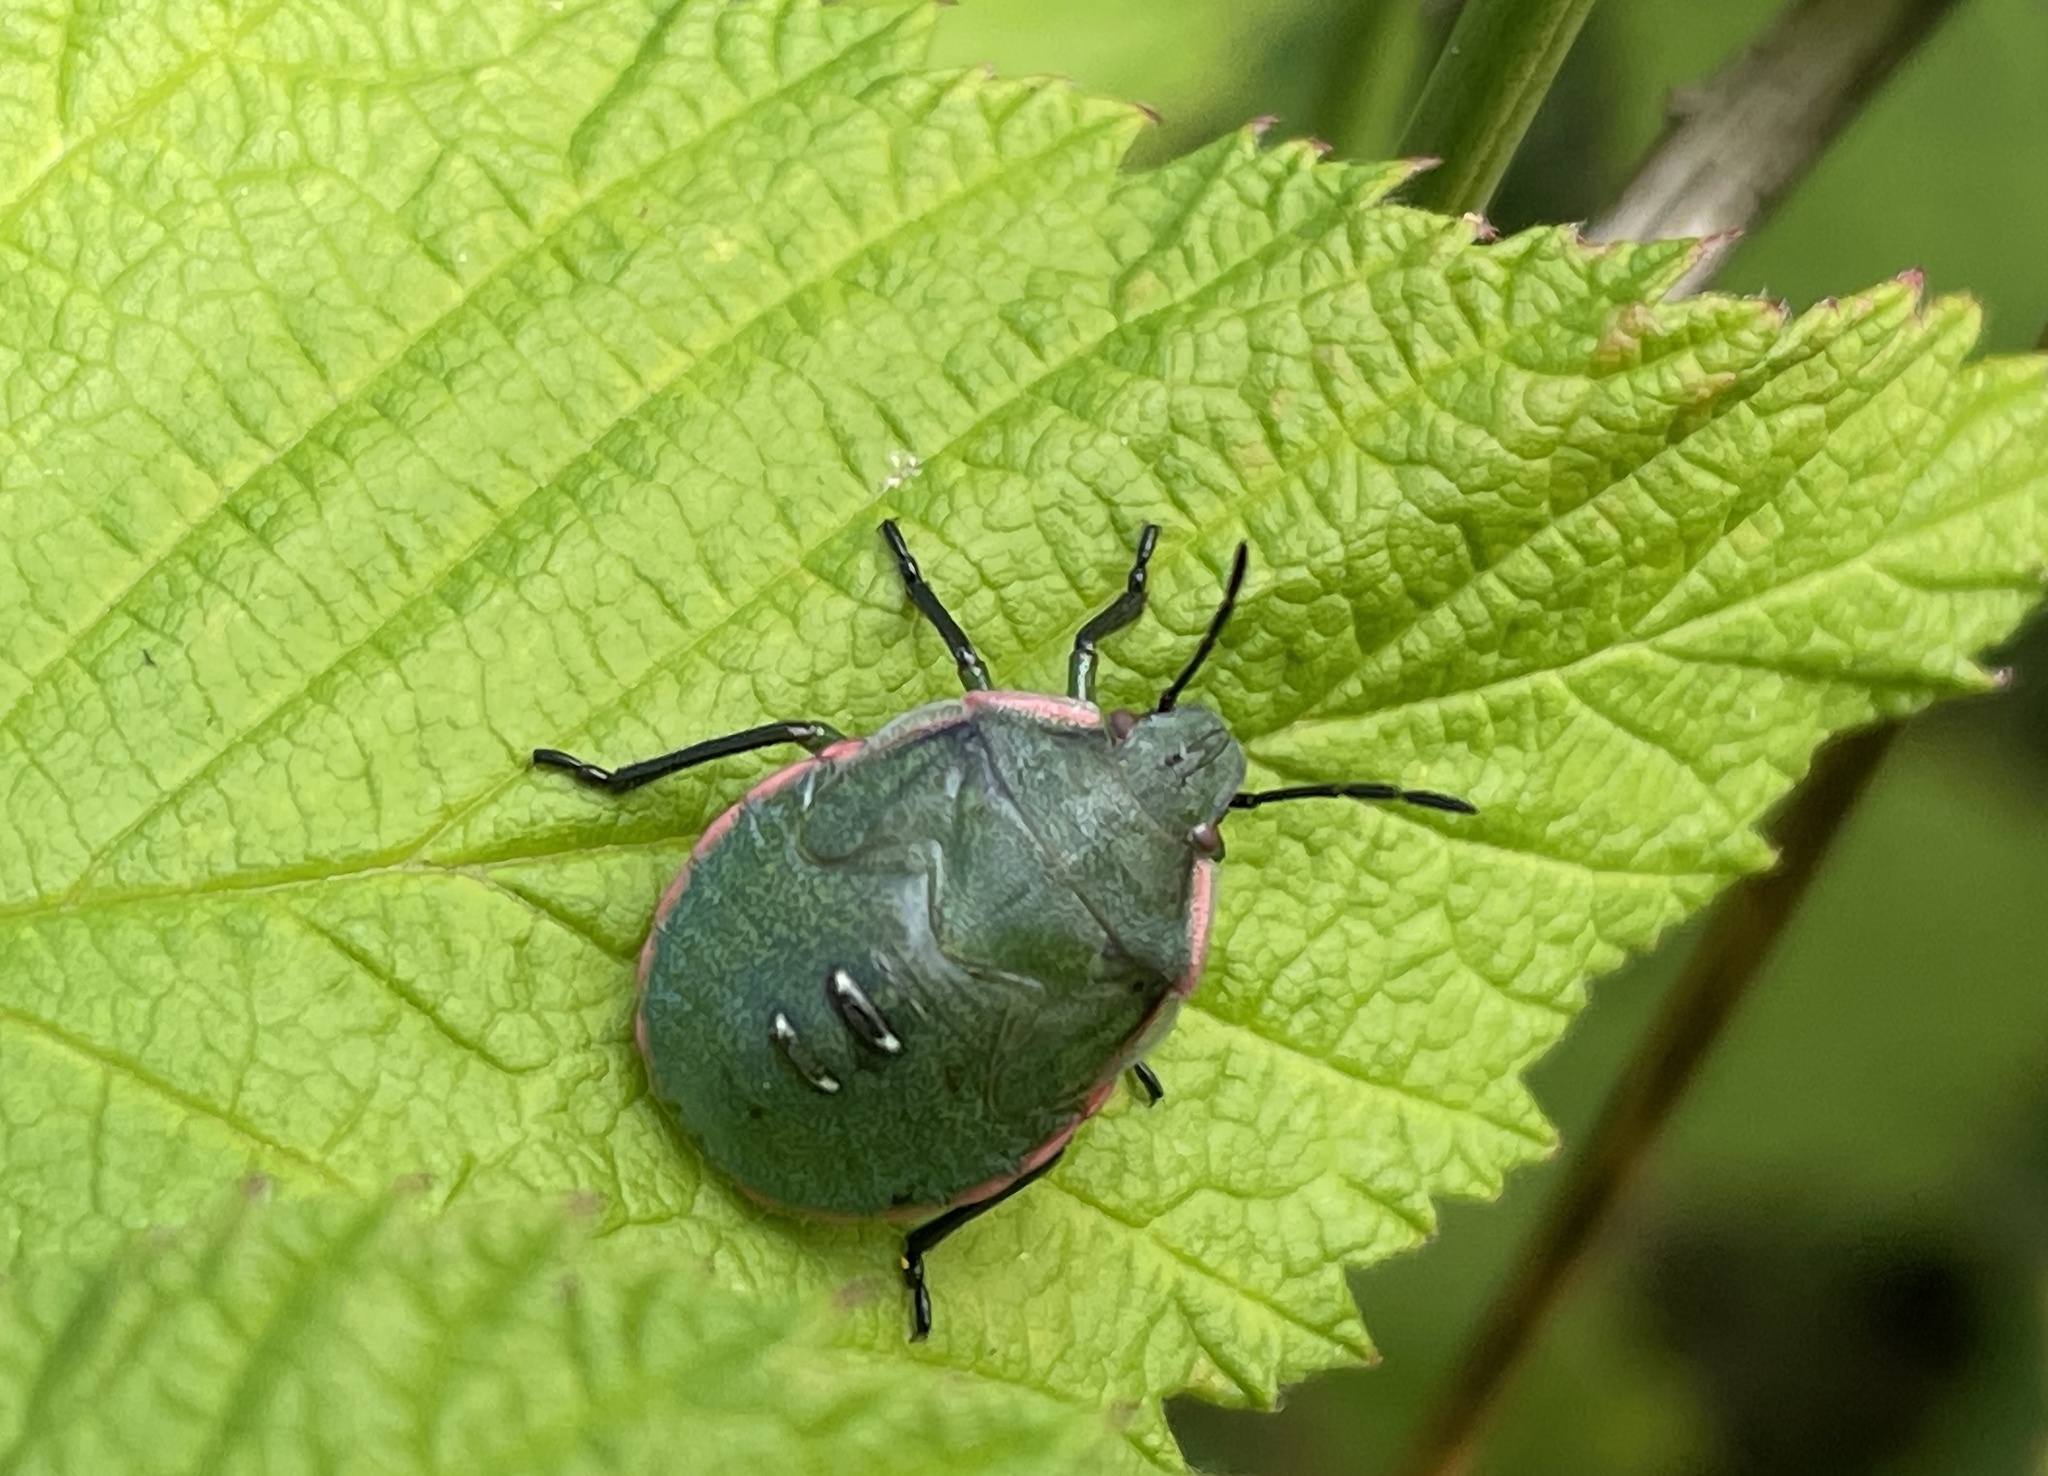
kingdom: Animalia
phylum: Arthropoda
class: Insecta
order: Hemiptera
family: Pentatomidae
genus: Chlorochroa
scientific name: Chlorochroa persimilis
